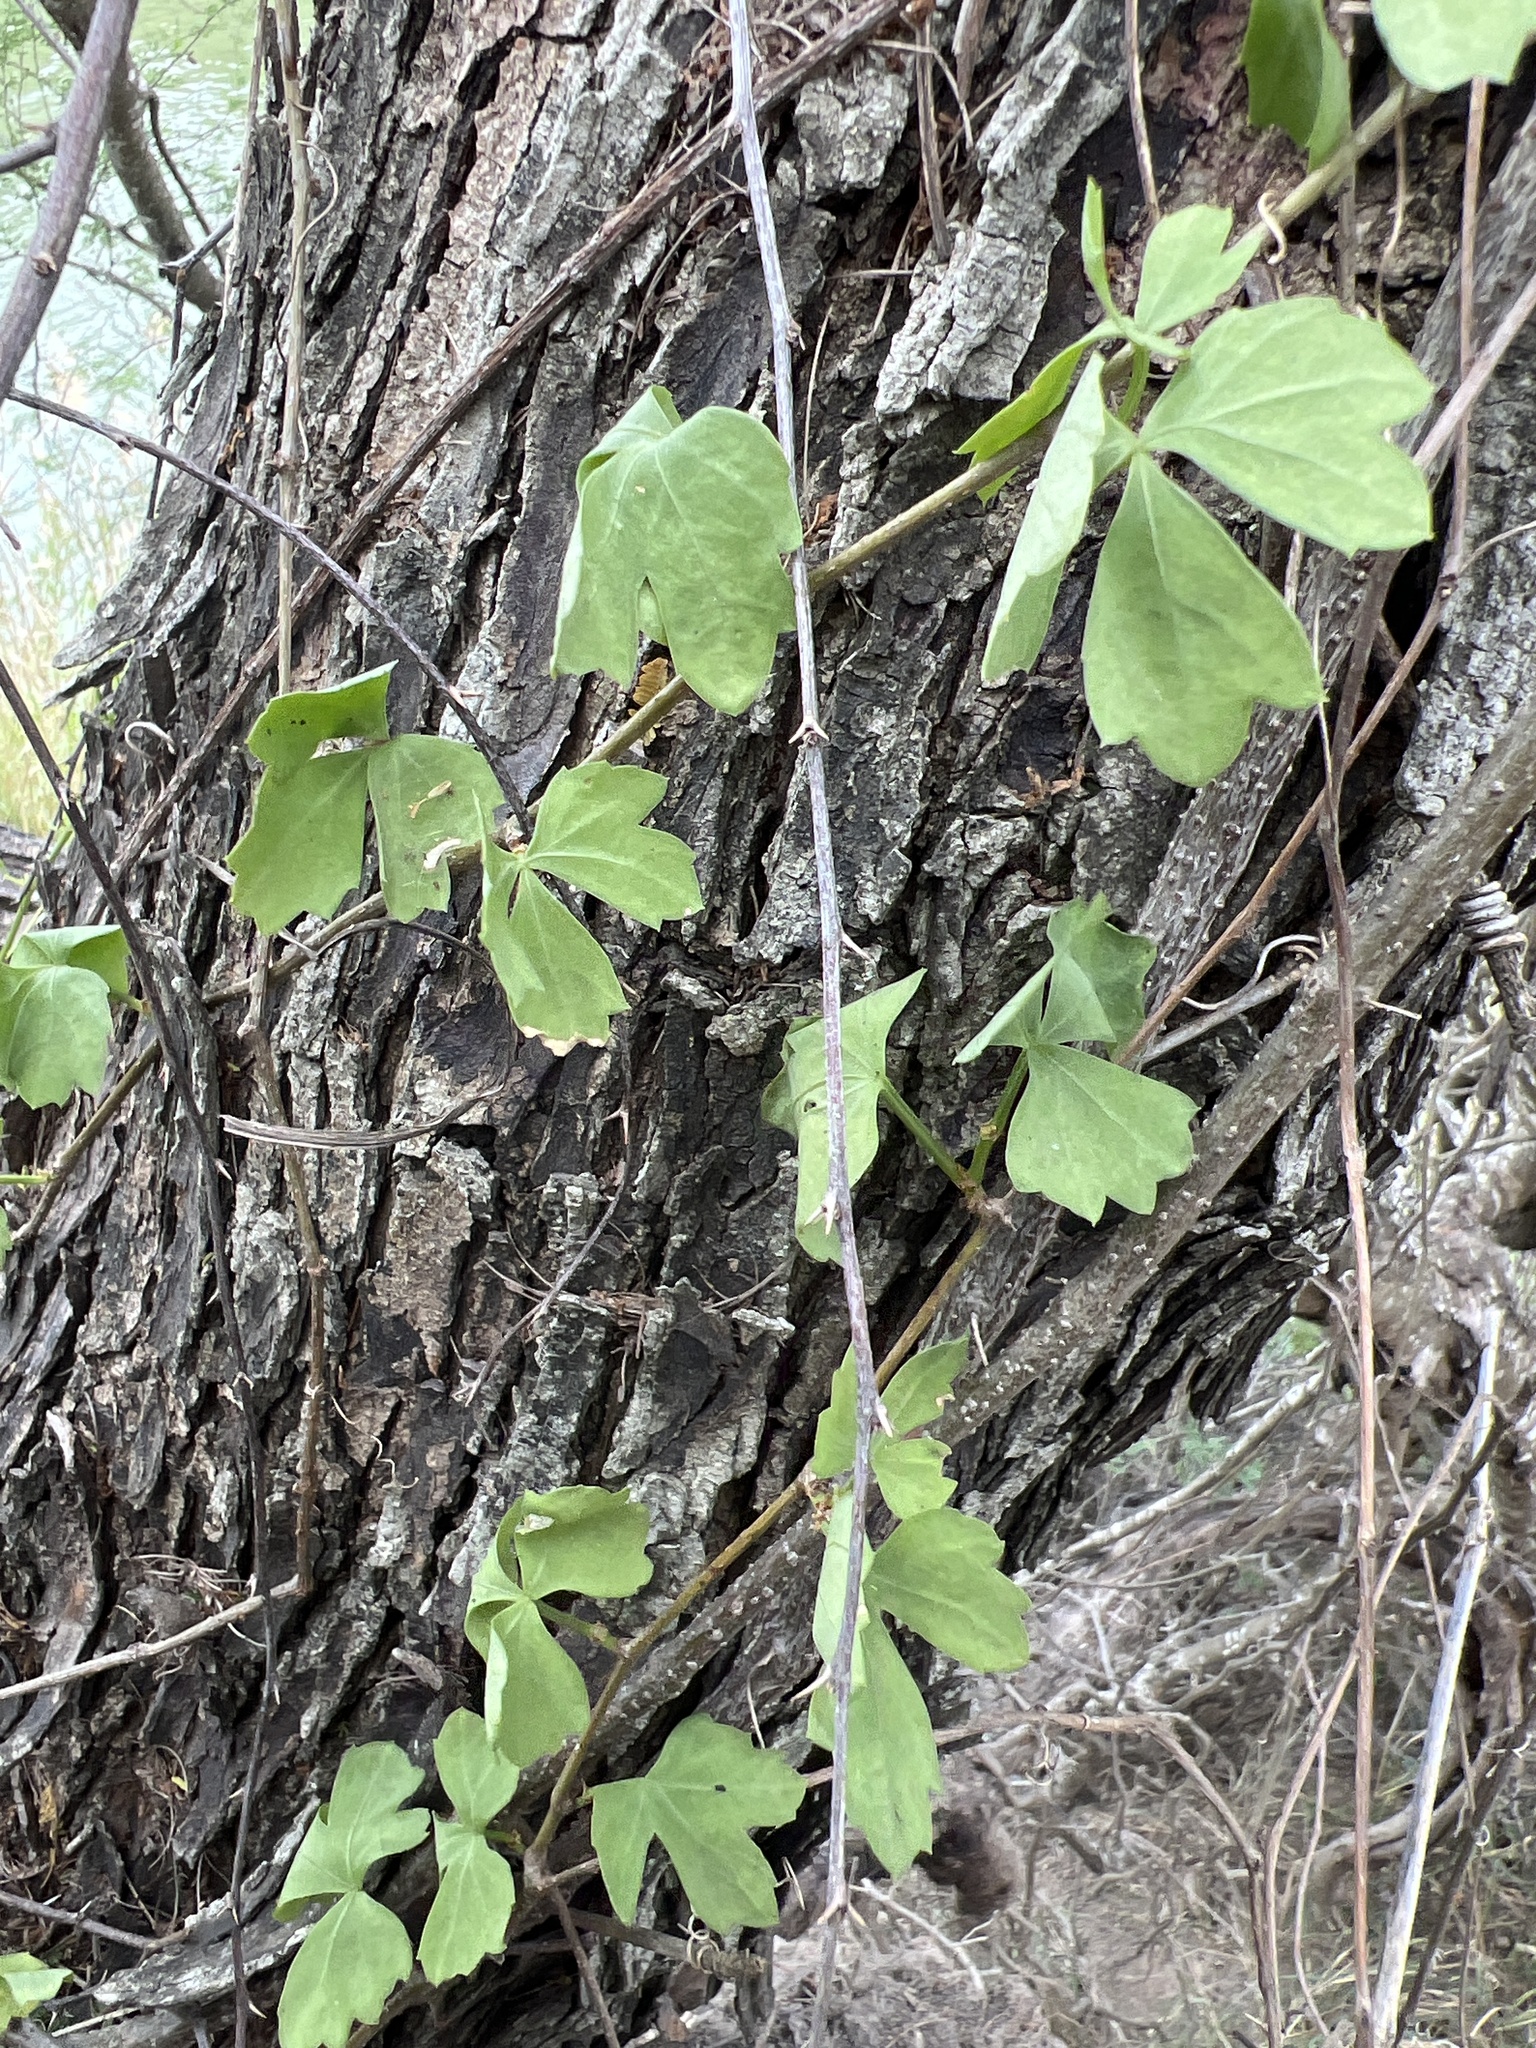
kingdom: Plantae
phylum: Tracheophyta
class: Magnoliopsida
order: Vitales
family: Vitaceae
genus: Cissus
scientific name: Cissus trifoliata
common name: Vine-sorrel
